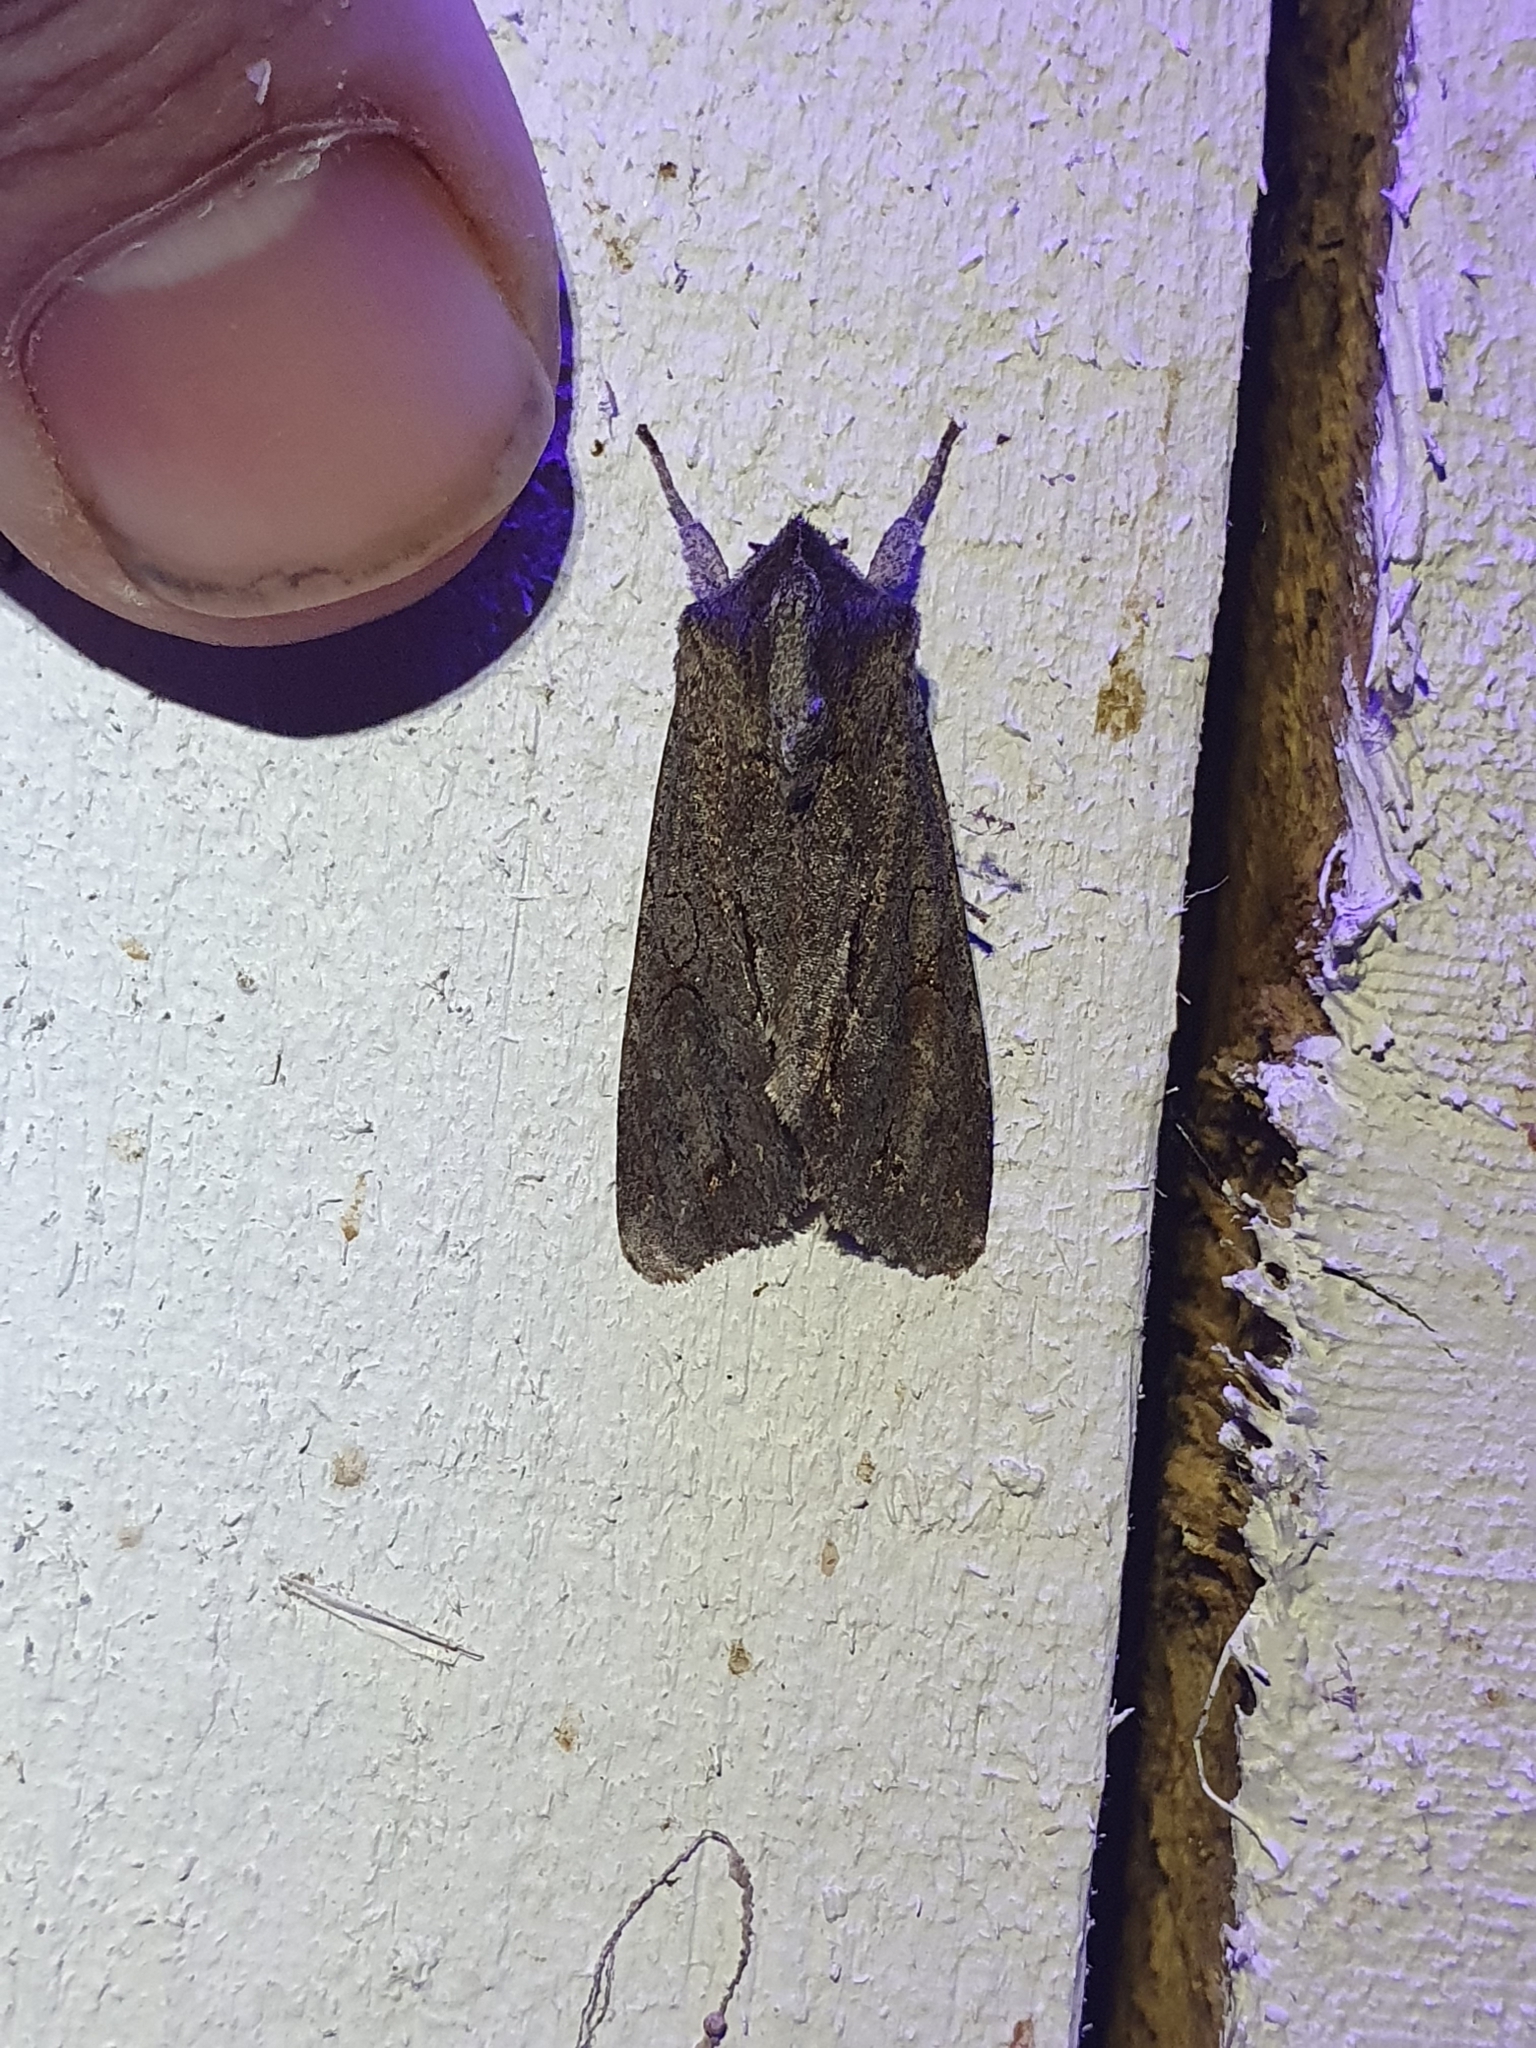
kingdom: Animalia
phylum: Arthropoda
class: Insecta
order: Lepidoptera
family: Noctuidae
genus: Ichneutica
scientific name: Ichneutica
